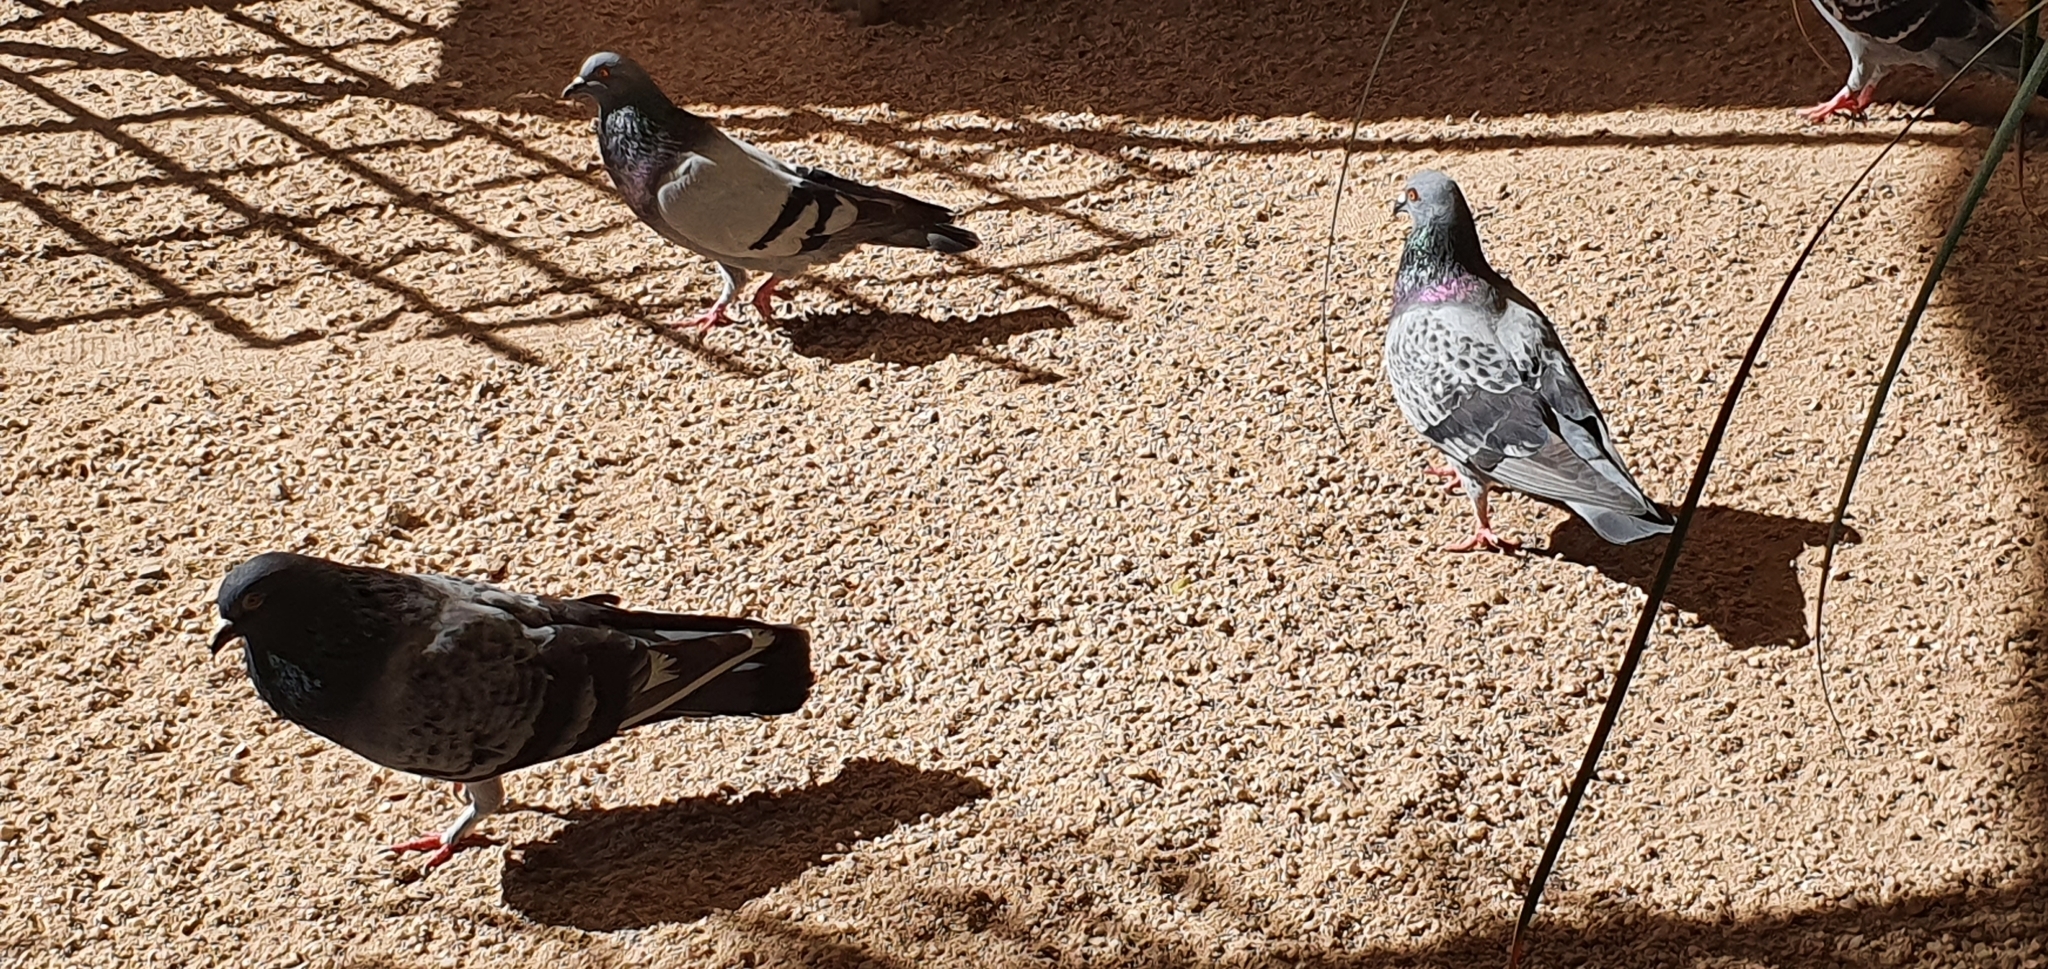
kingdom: Animalia
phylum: Chordata
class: Aves
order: Columbiformes
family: Columbidae
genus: Columba
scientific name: Columba livia
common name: Rock pigeon
